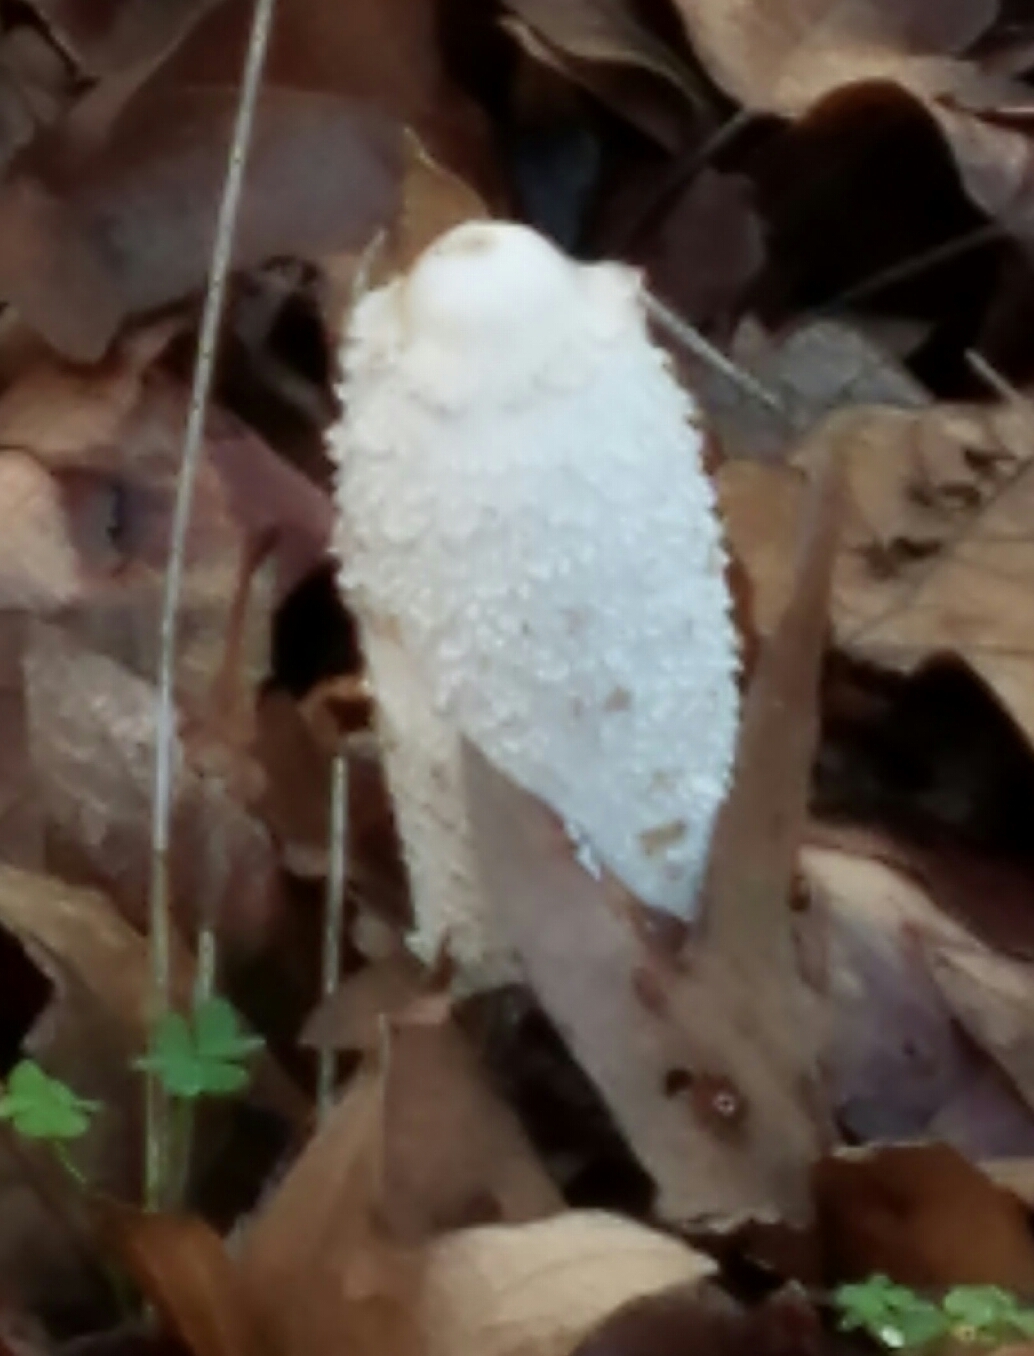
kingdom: Fungi
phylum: Basidiomycota
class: Agaricomycetes
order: Agaricales
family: Agaricaceae
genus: Coprinus
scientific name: Coprinus comatus
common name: Lawyer's wig
